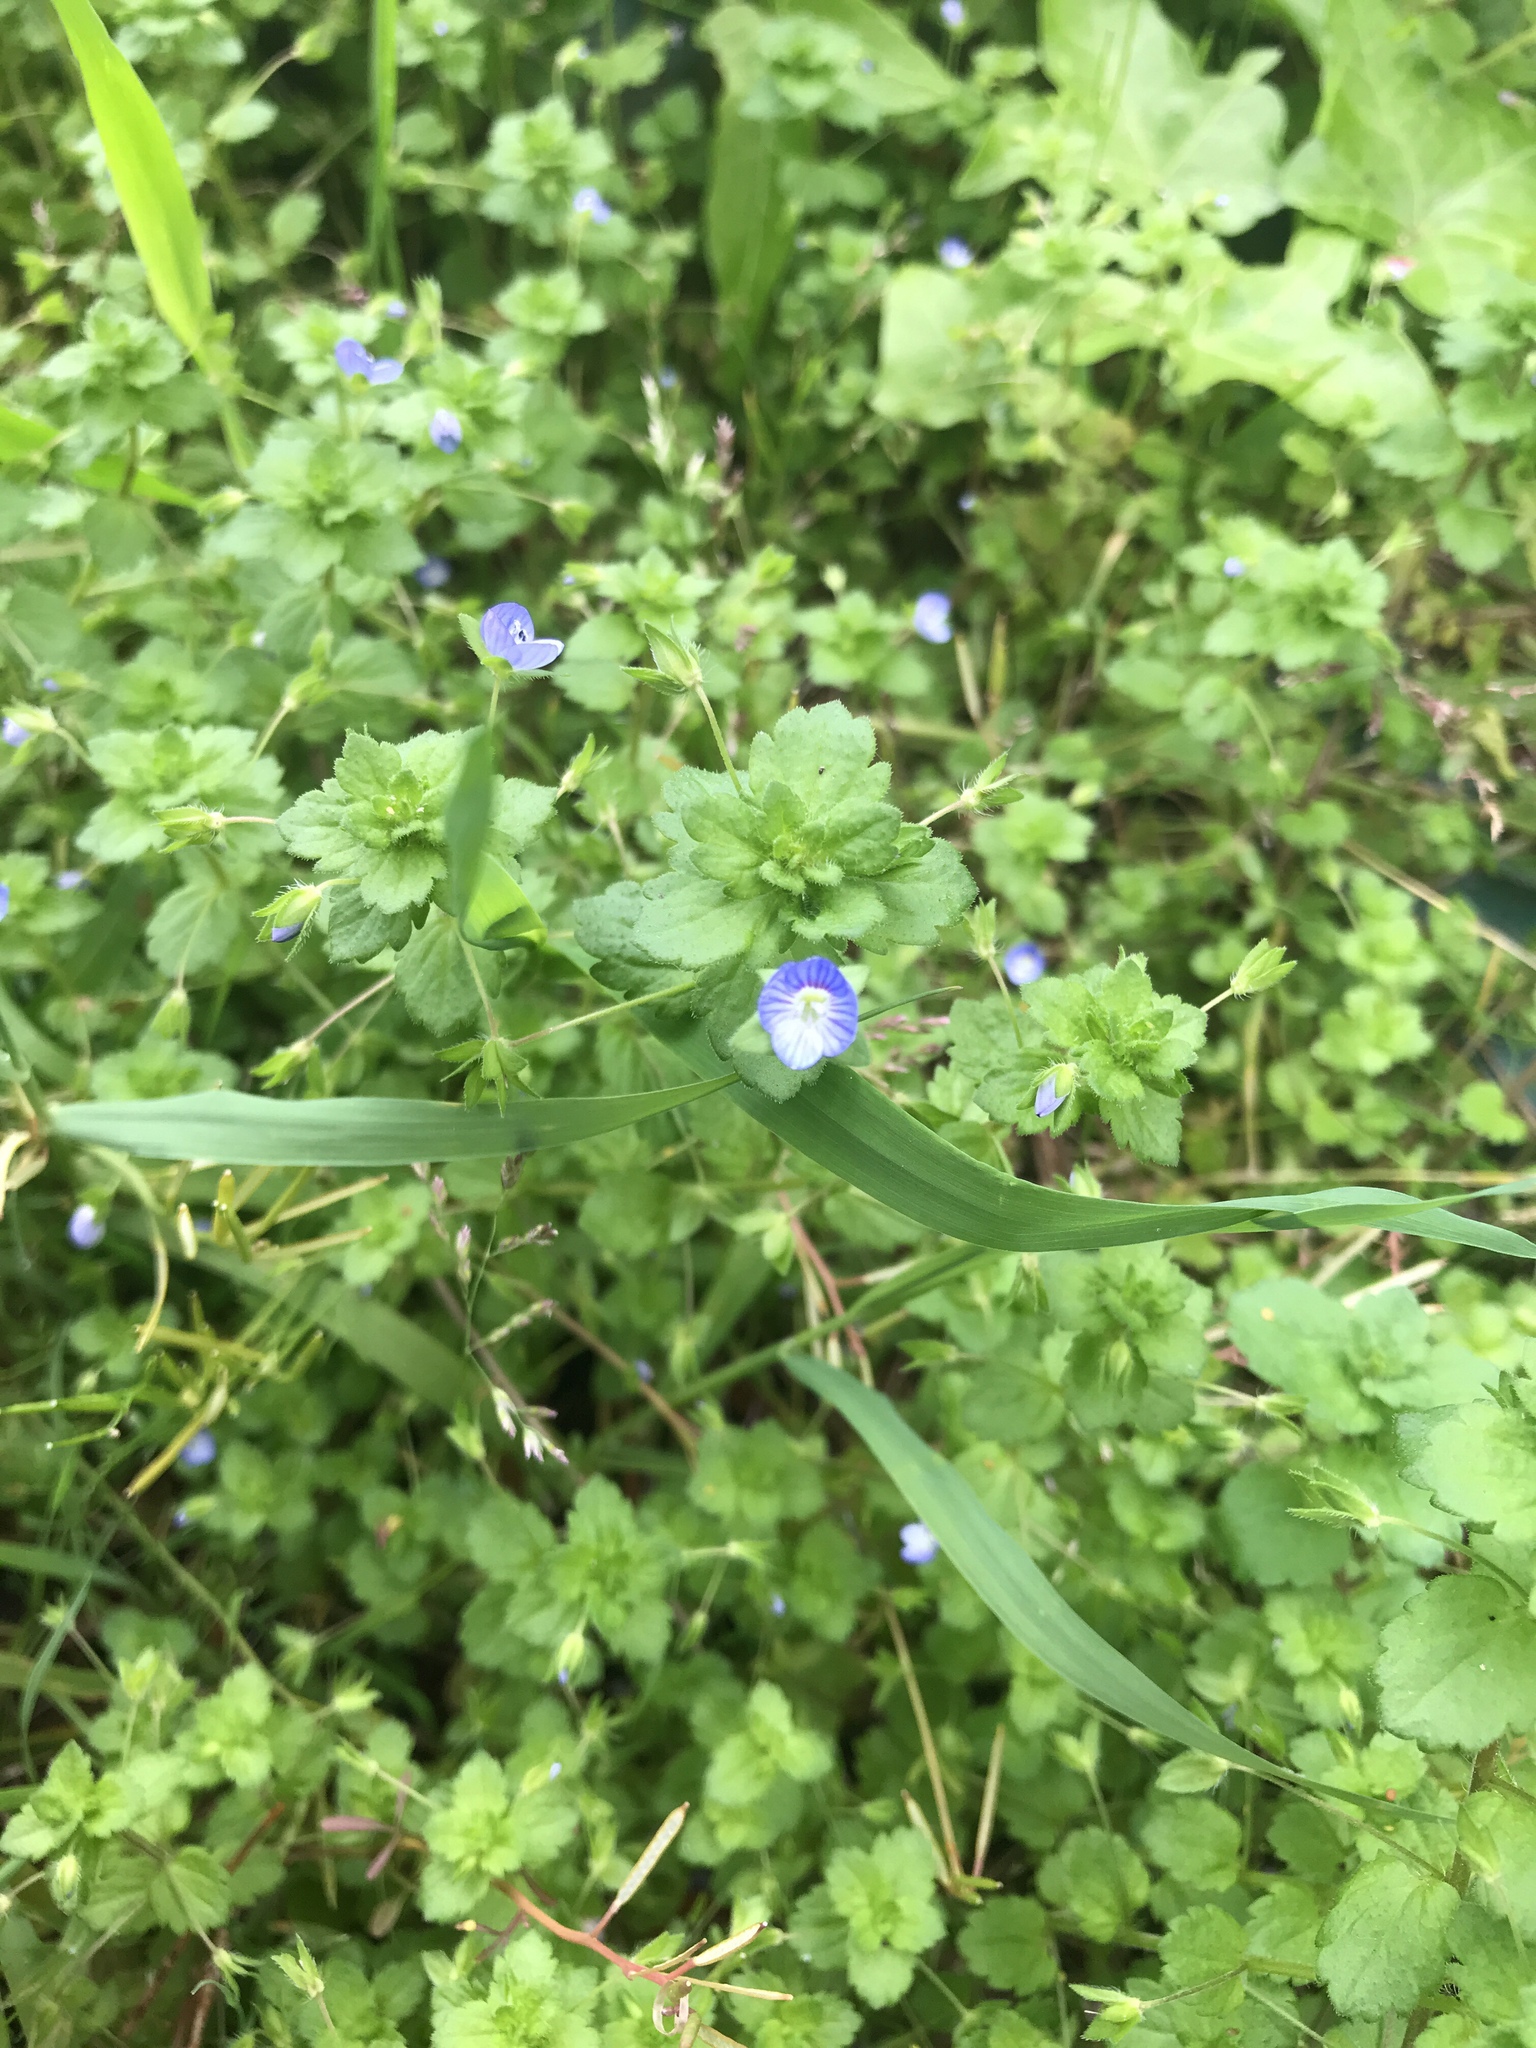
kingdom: Plantae
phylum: Tracheophyta
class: Magnoliopsida
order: Lamiales
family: Plantaginaceae
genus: Veronica
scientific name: Veronica persica
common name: Common field-speedwell
